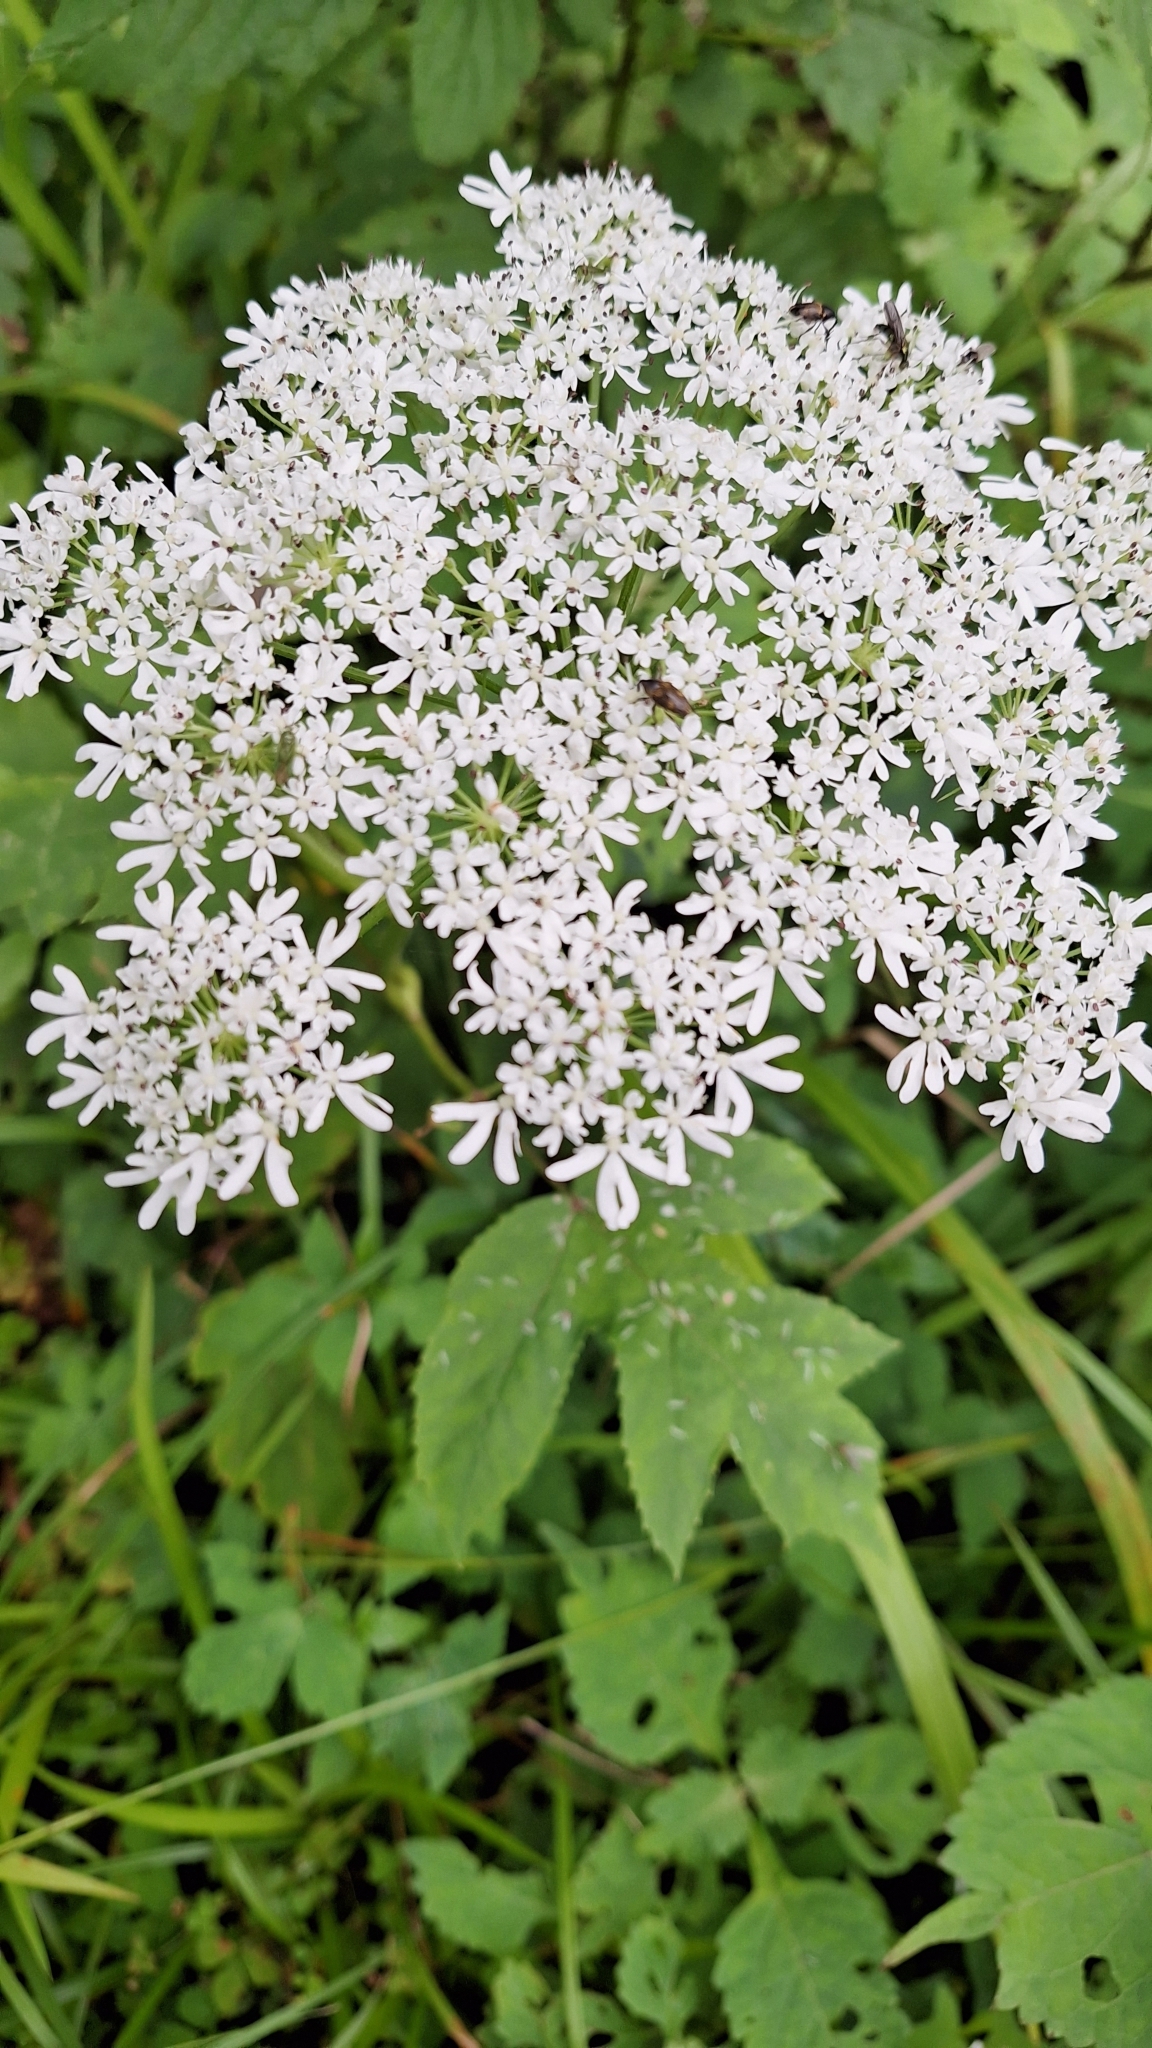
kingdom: Plantae
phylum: Tracheophyta
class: Magnoliopsida
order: Apiales
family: Apiaceae
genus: Heracleum
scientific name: Heracleum dissectum
